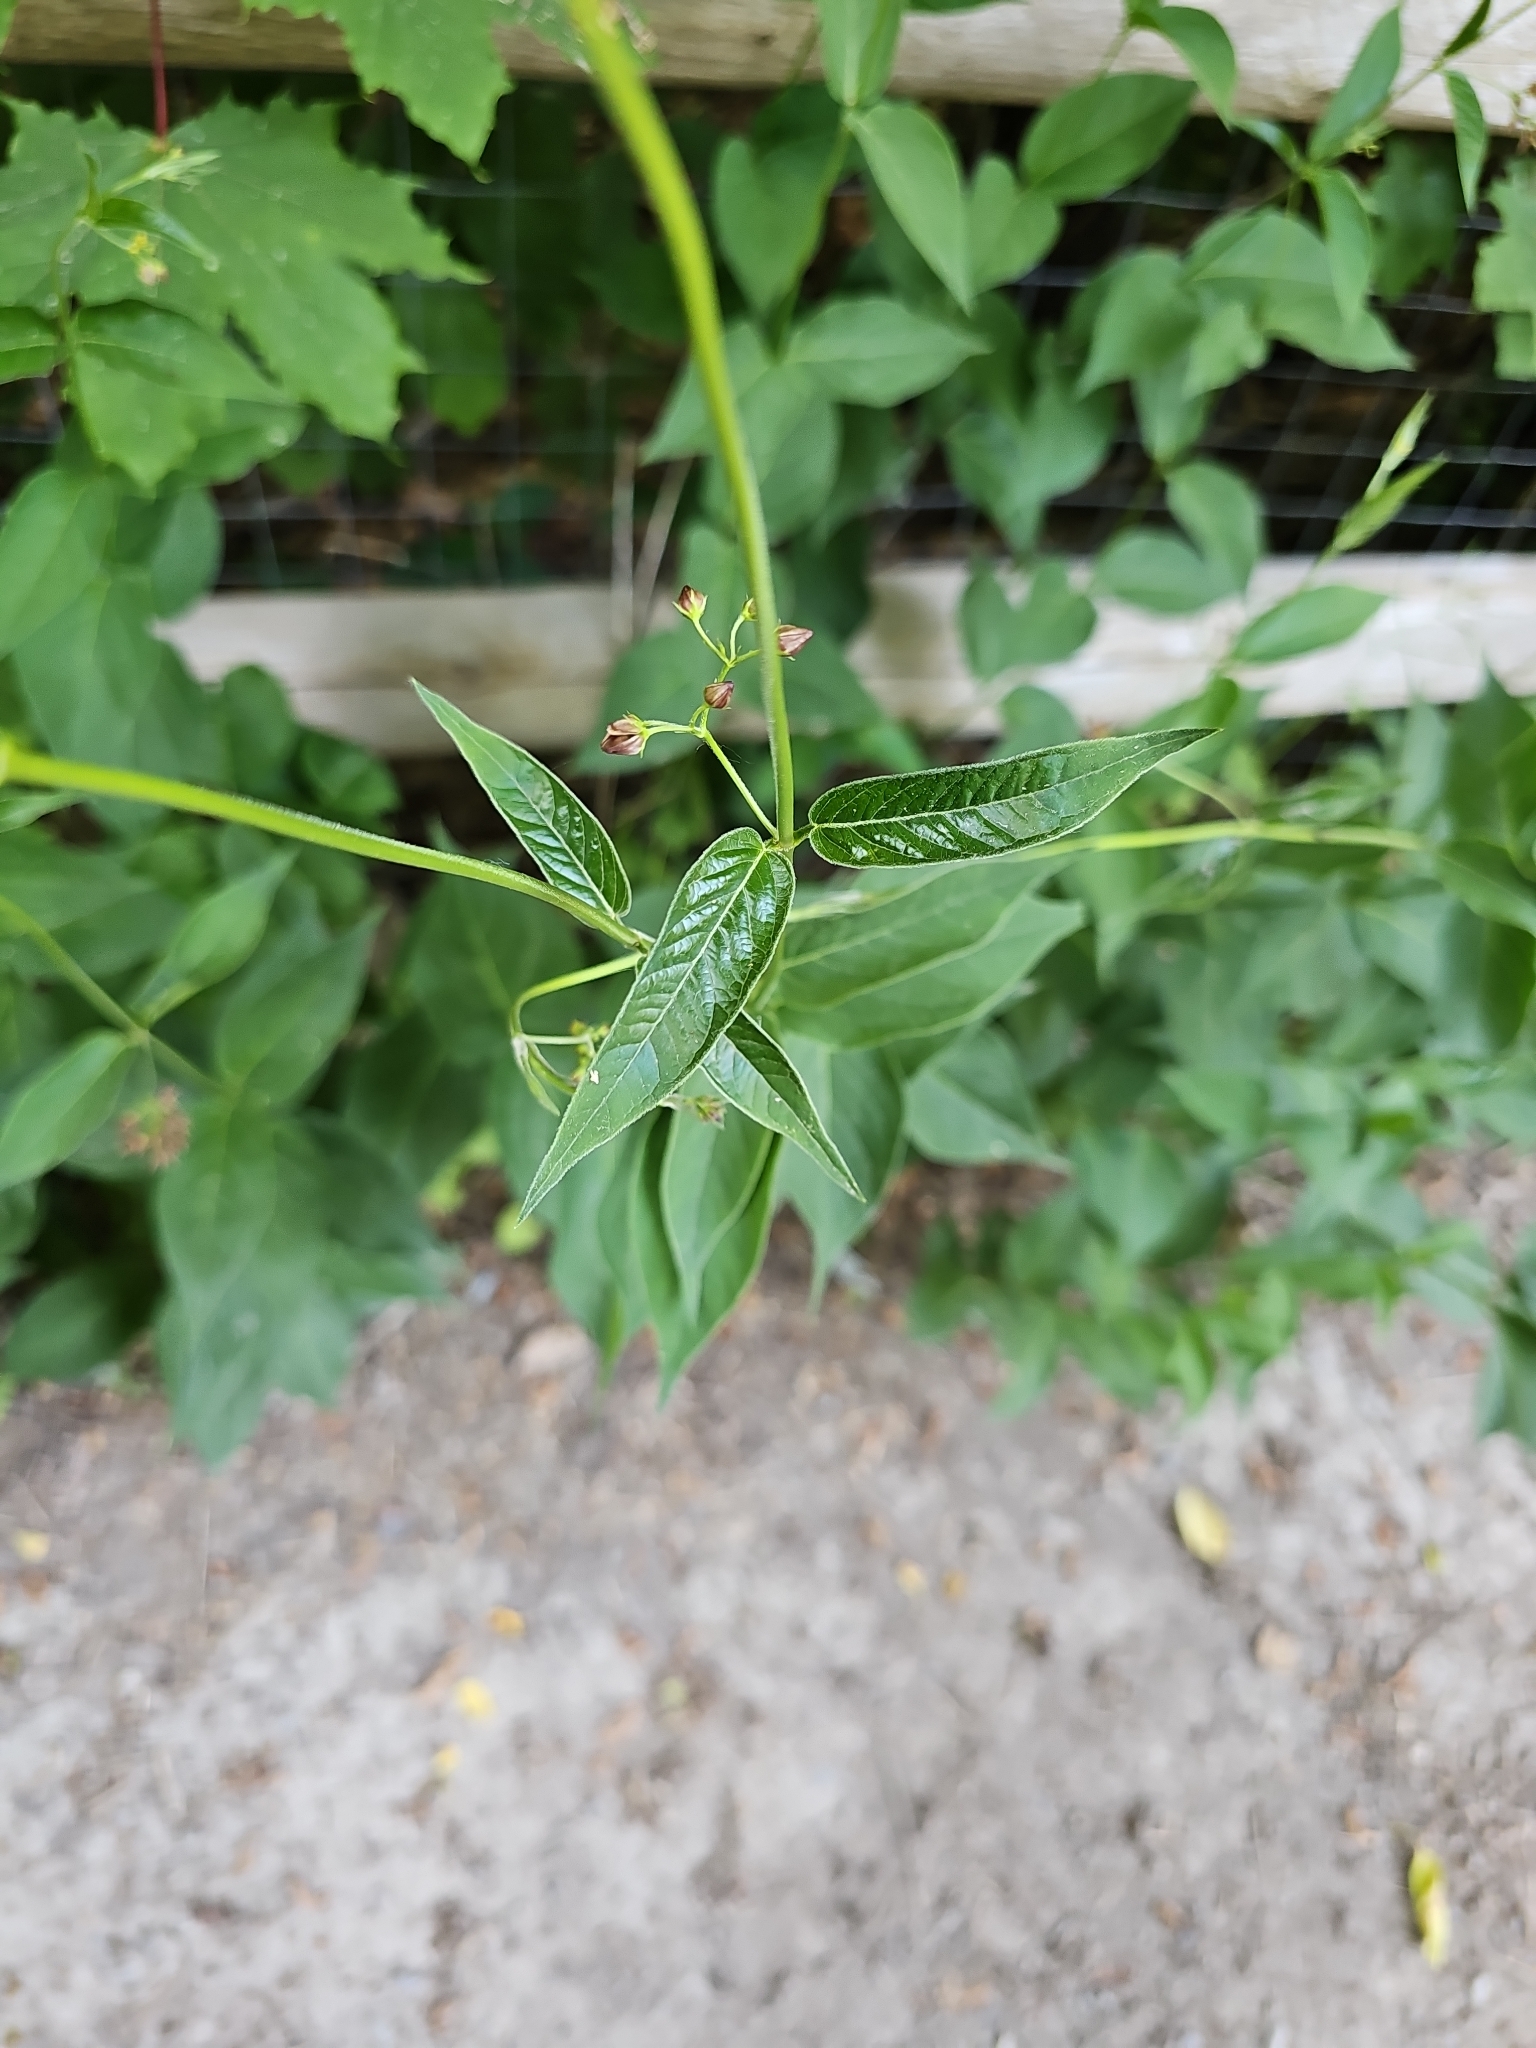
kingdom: Plantae
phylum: Tracheophyta
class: Magnoliopsida
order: Gentianales
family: Apocynaceae
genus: Vincetoxicum
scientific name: Vincetoxicum rossicum
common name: Dog-strangling vine
